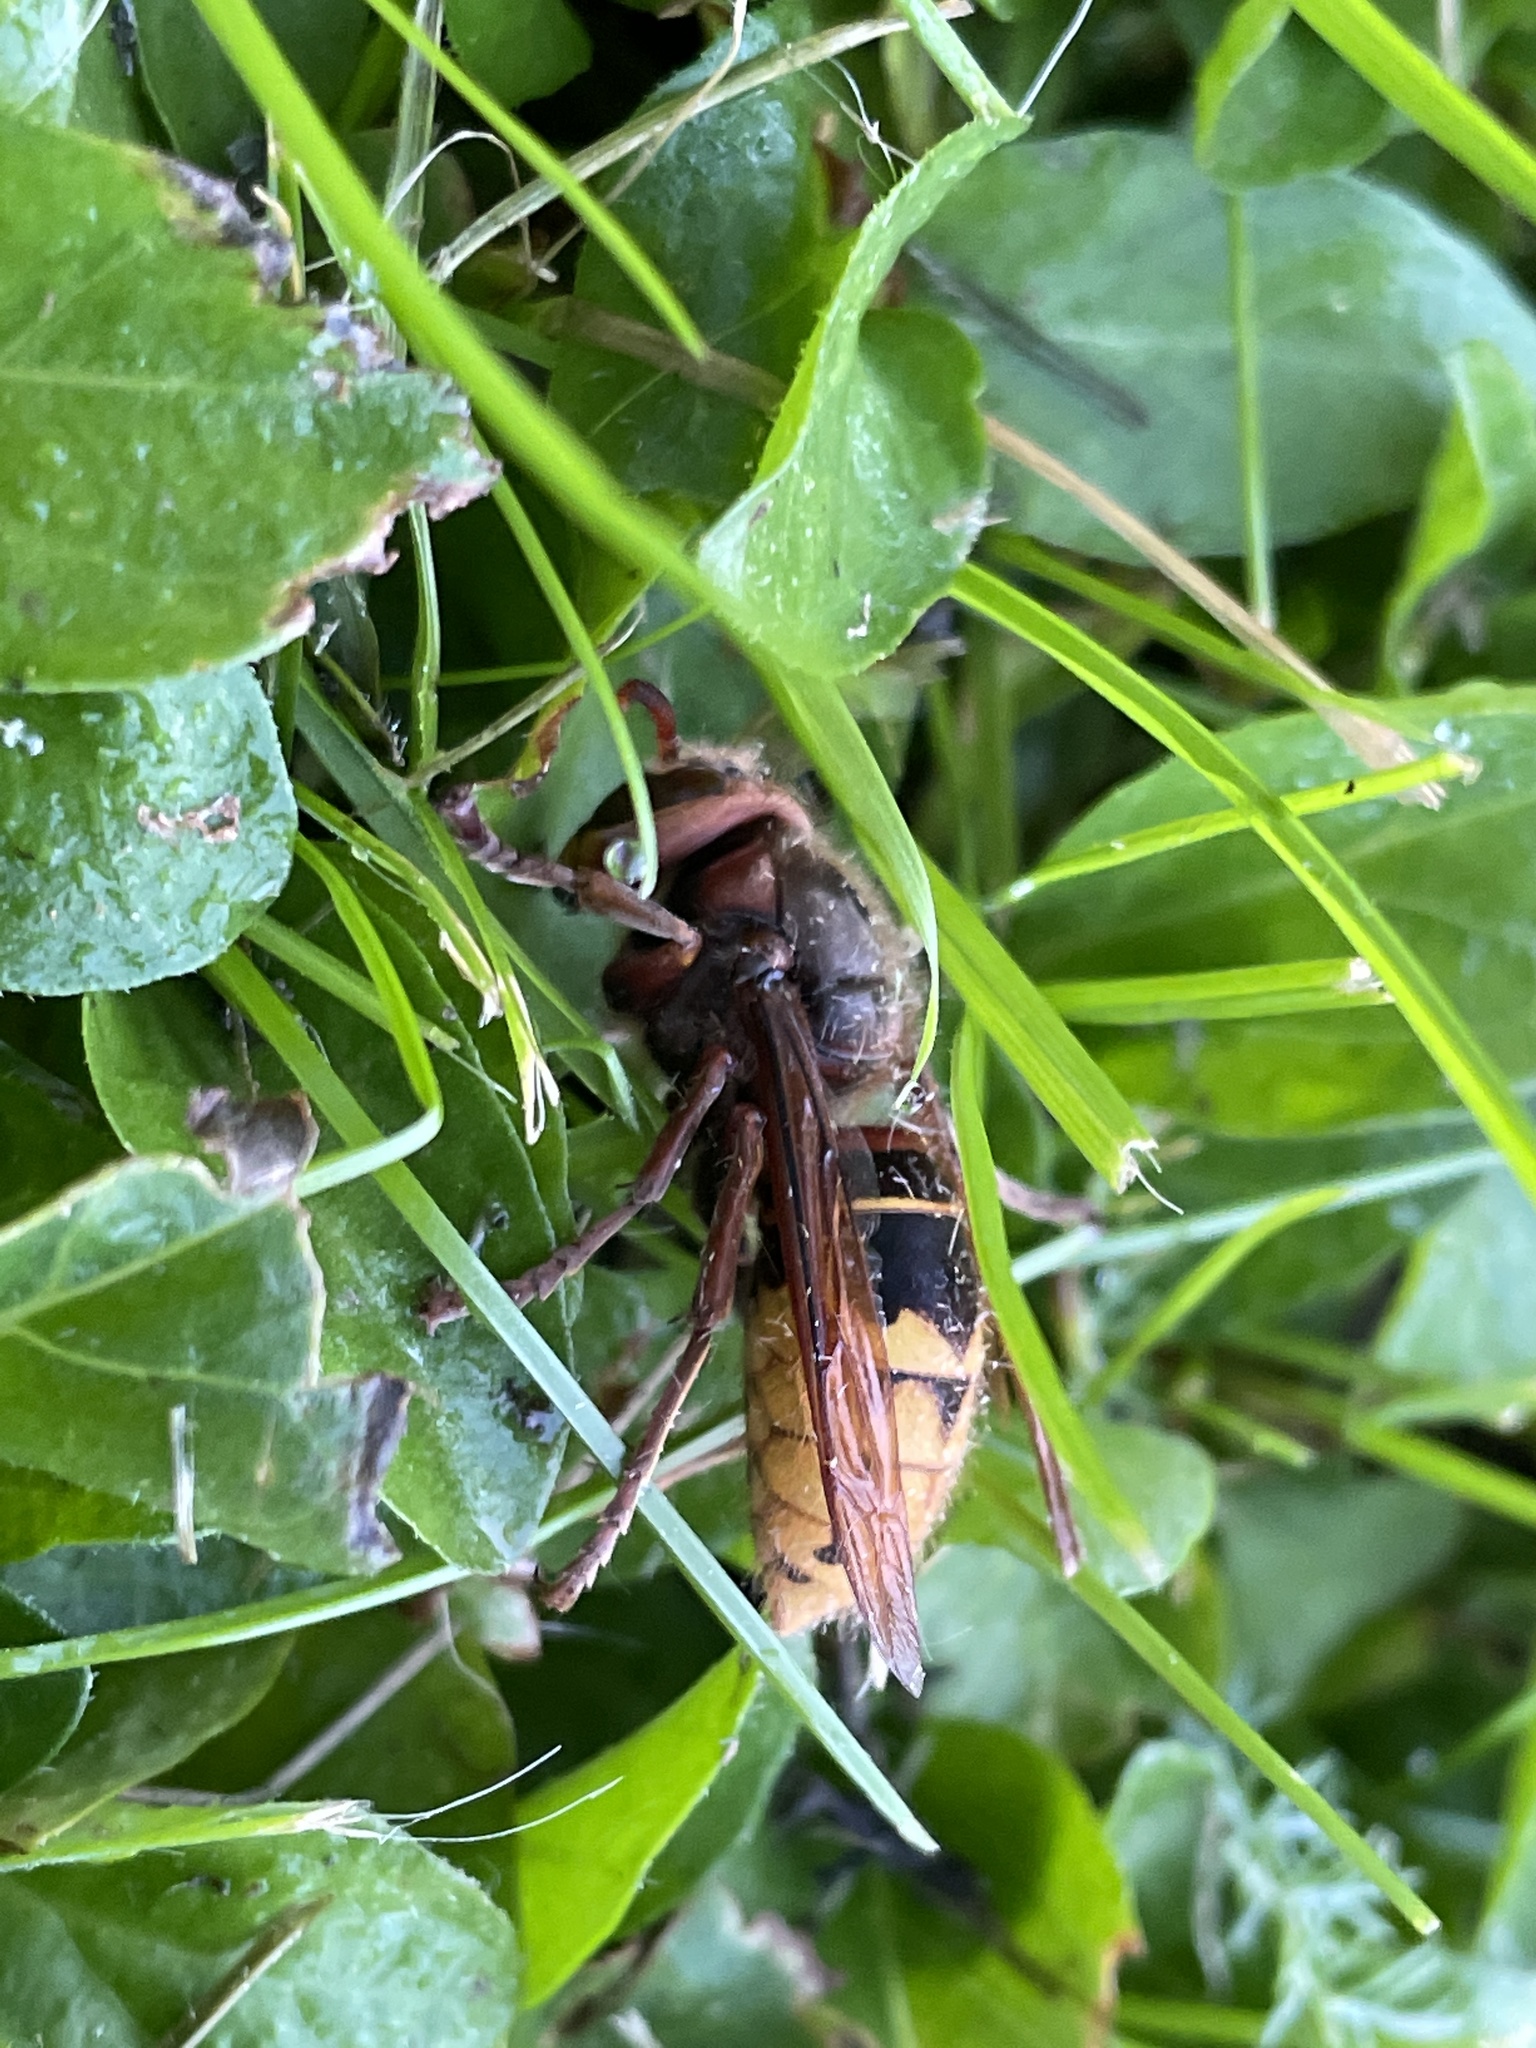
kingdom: Animalia
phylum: Arthropoda
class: Insecta
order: Hymenoptera
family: Vespidae
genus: Vespa
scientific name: Vespa crabro
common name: Hornet
